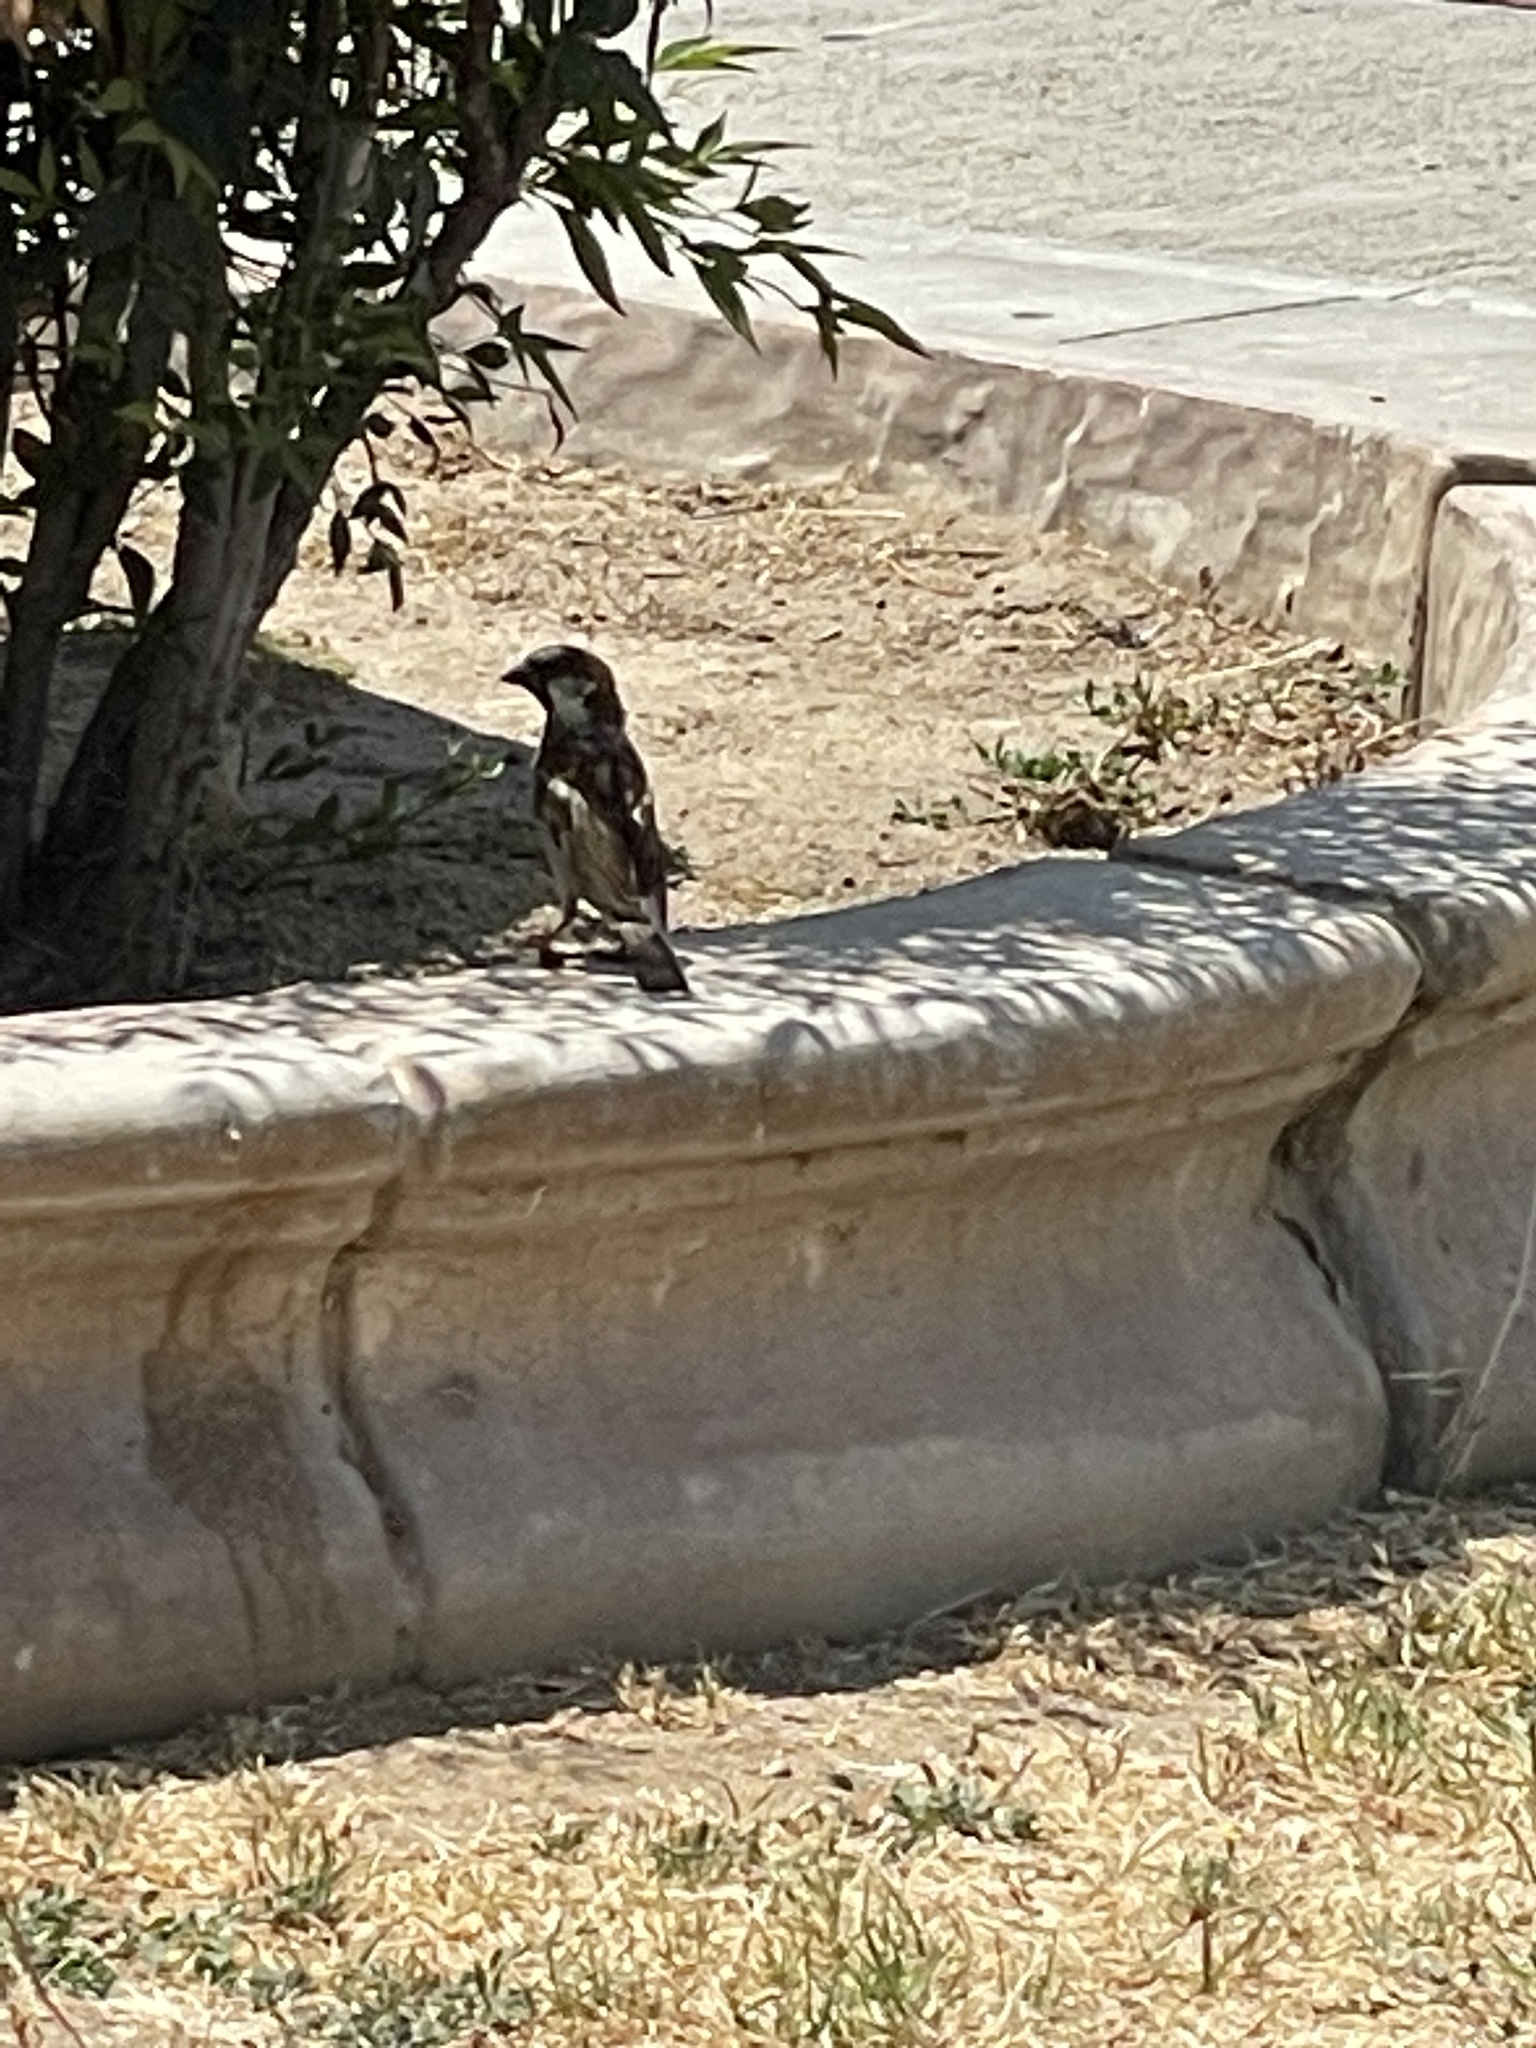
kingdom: Animalia
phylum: Chordata
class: Aves
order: Passeriformes
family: Passeridae
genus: Passer
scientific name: Passer domesticus
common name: House sparrow
